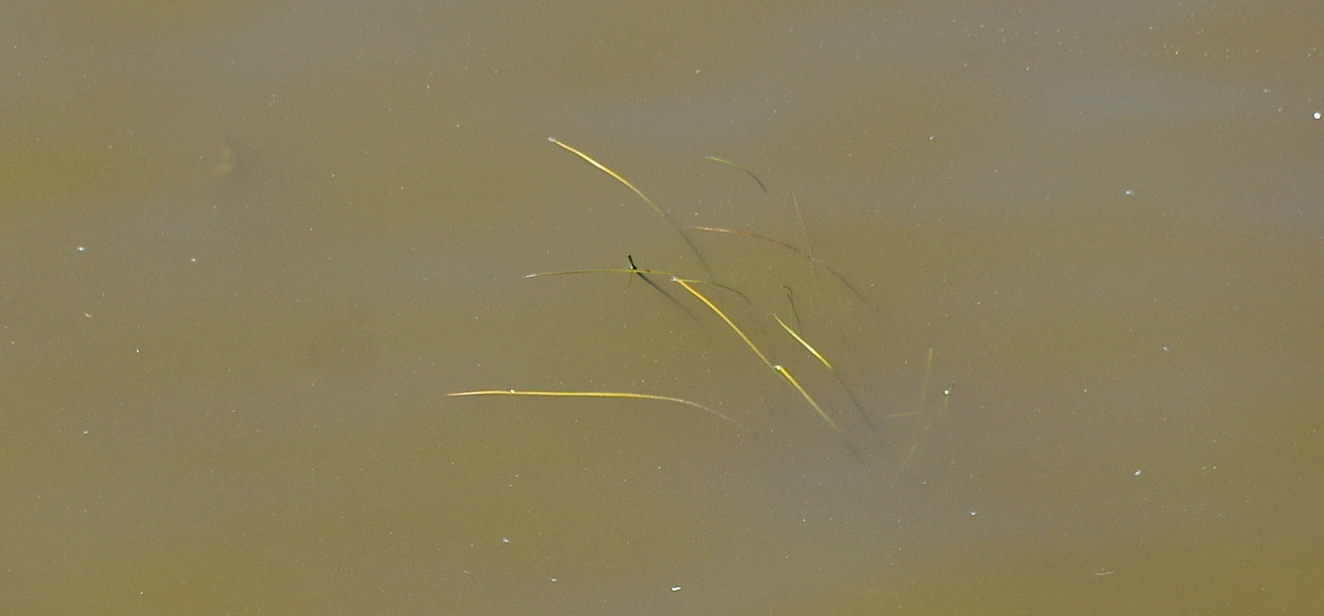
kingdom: Plantae
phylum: Tracheophyta
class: Liliopsida
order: Alismatales
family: Alismataceae
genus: Sagittaria
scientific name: Sagittaria sagittifolia
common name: Arrowhead
